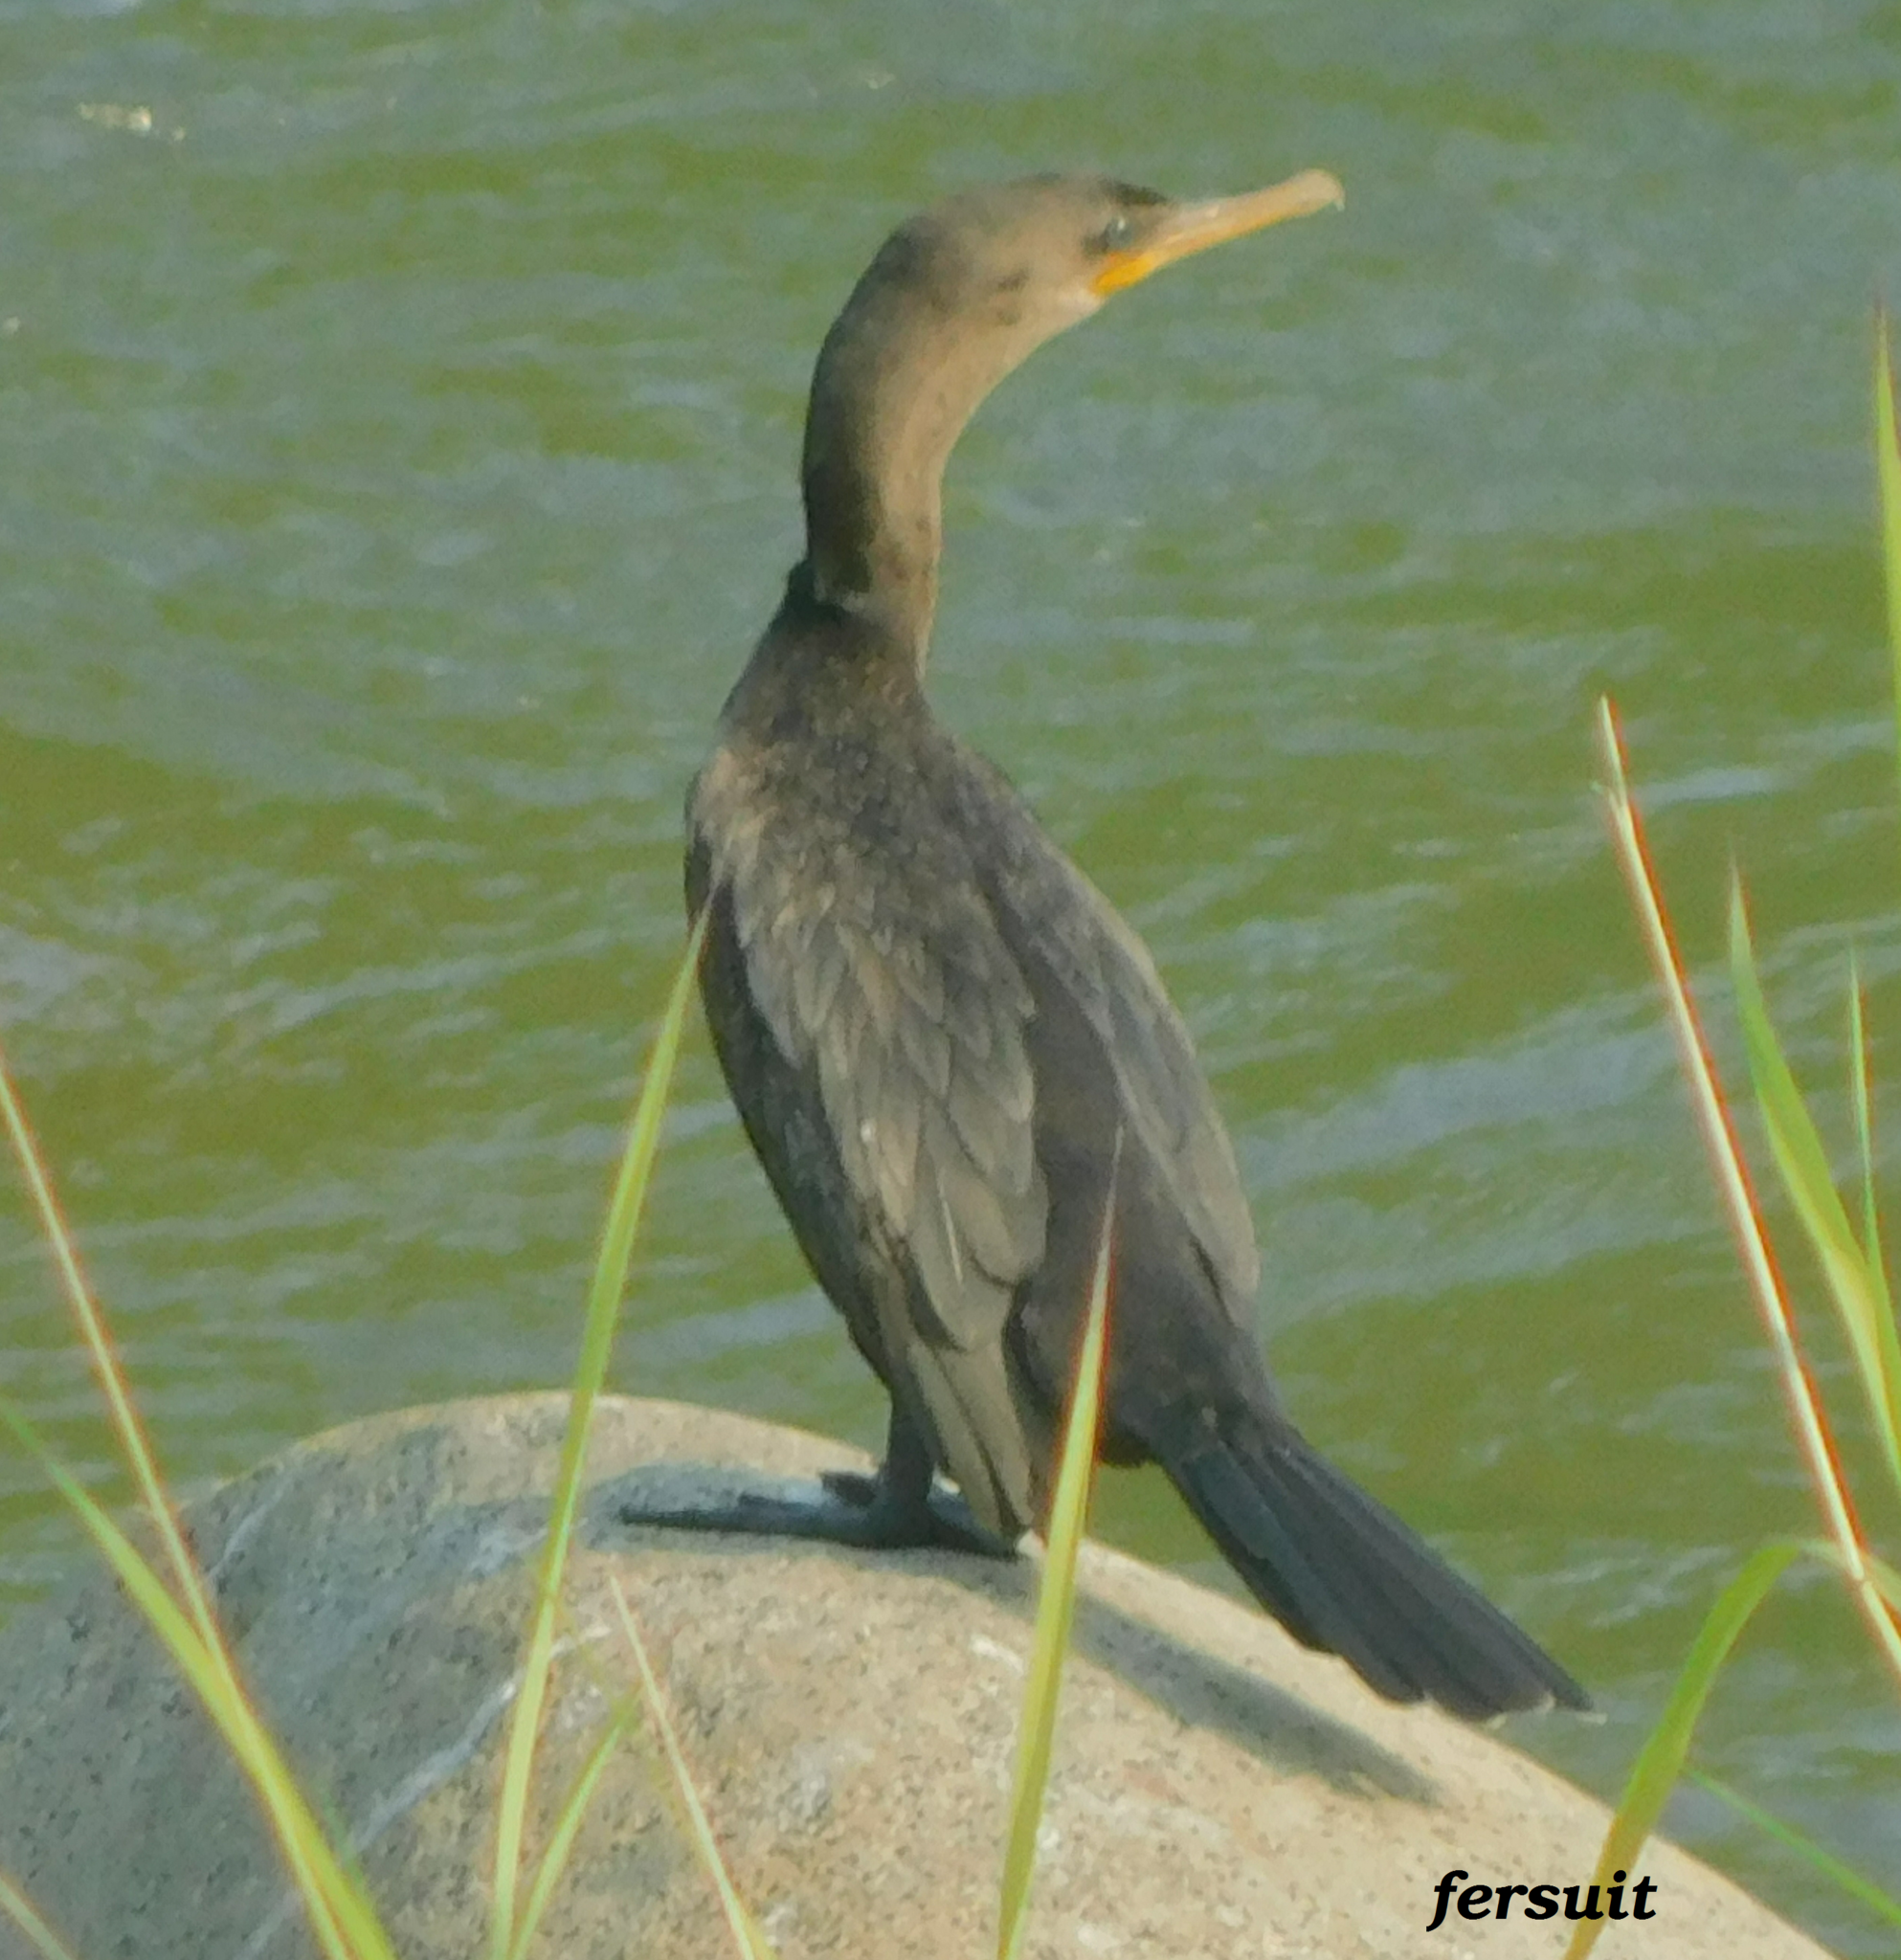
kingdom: Animalia
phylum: Chordata
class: Aves
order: Suliformes
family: Phalacrocoracidae
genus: Phalacrocorax
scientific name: Phalacrocorax brasilianus
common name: Neotropic cormorant
